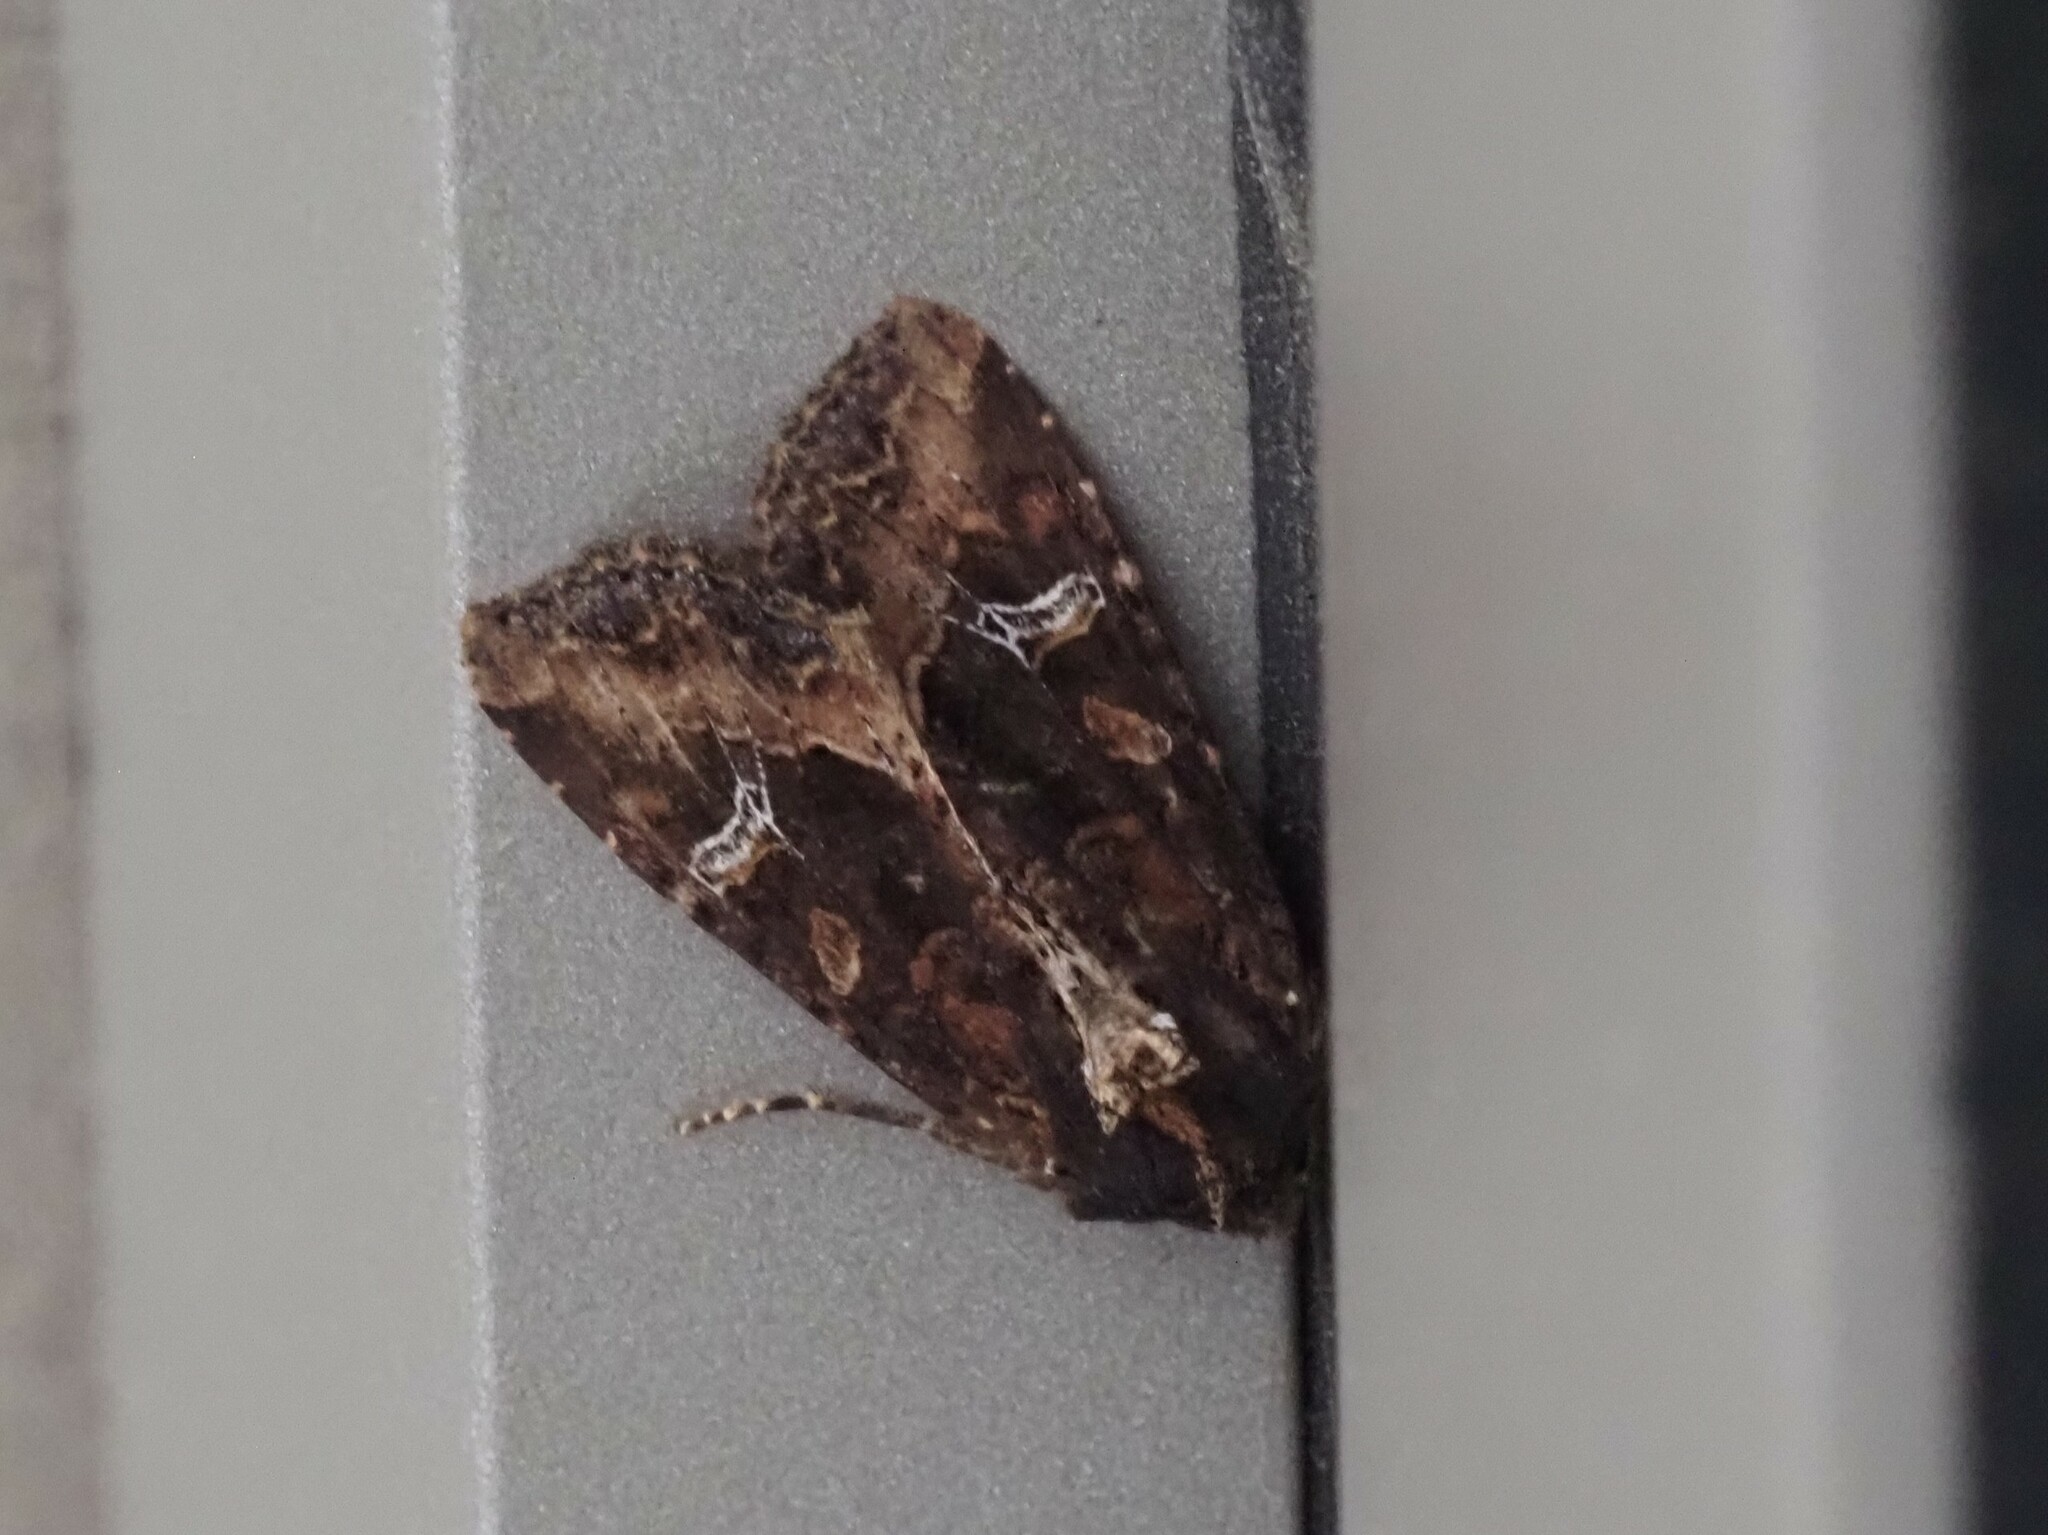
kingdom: Animalia
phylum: Arthropoda
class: Insecta
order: Lepidoptera
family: Noctuidae
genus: Helotropha
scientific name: Helotropha reniformis
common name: Kidney-spotted rustic moth
